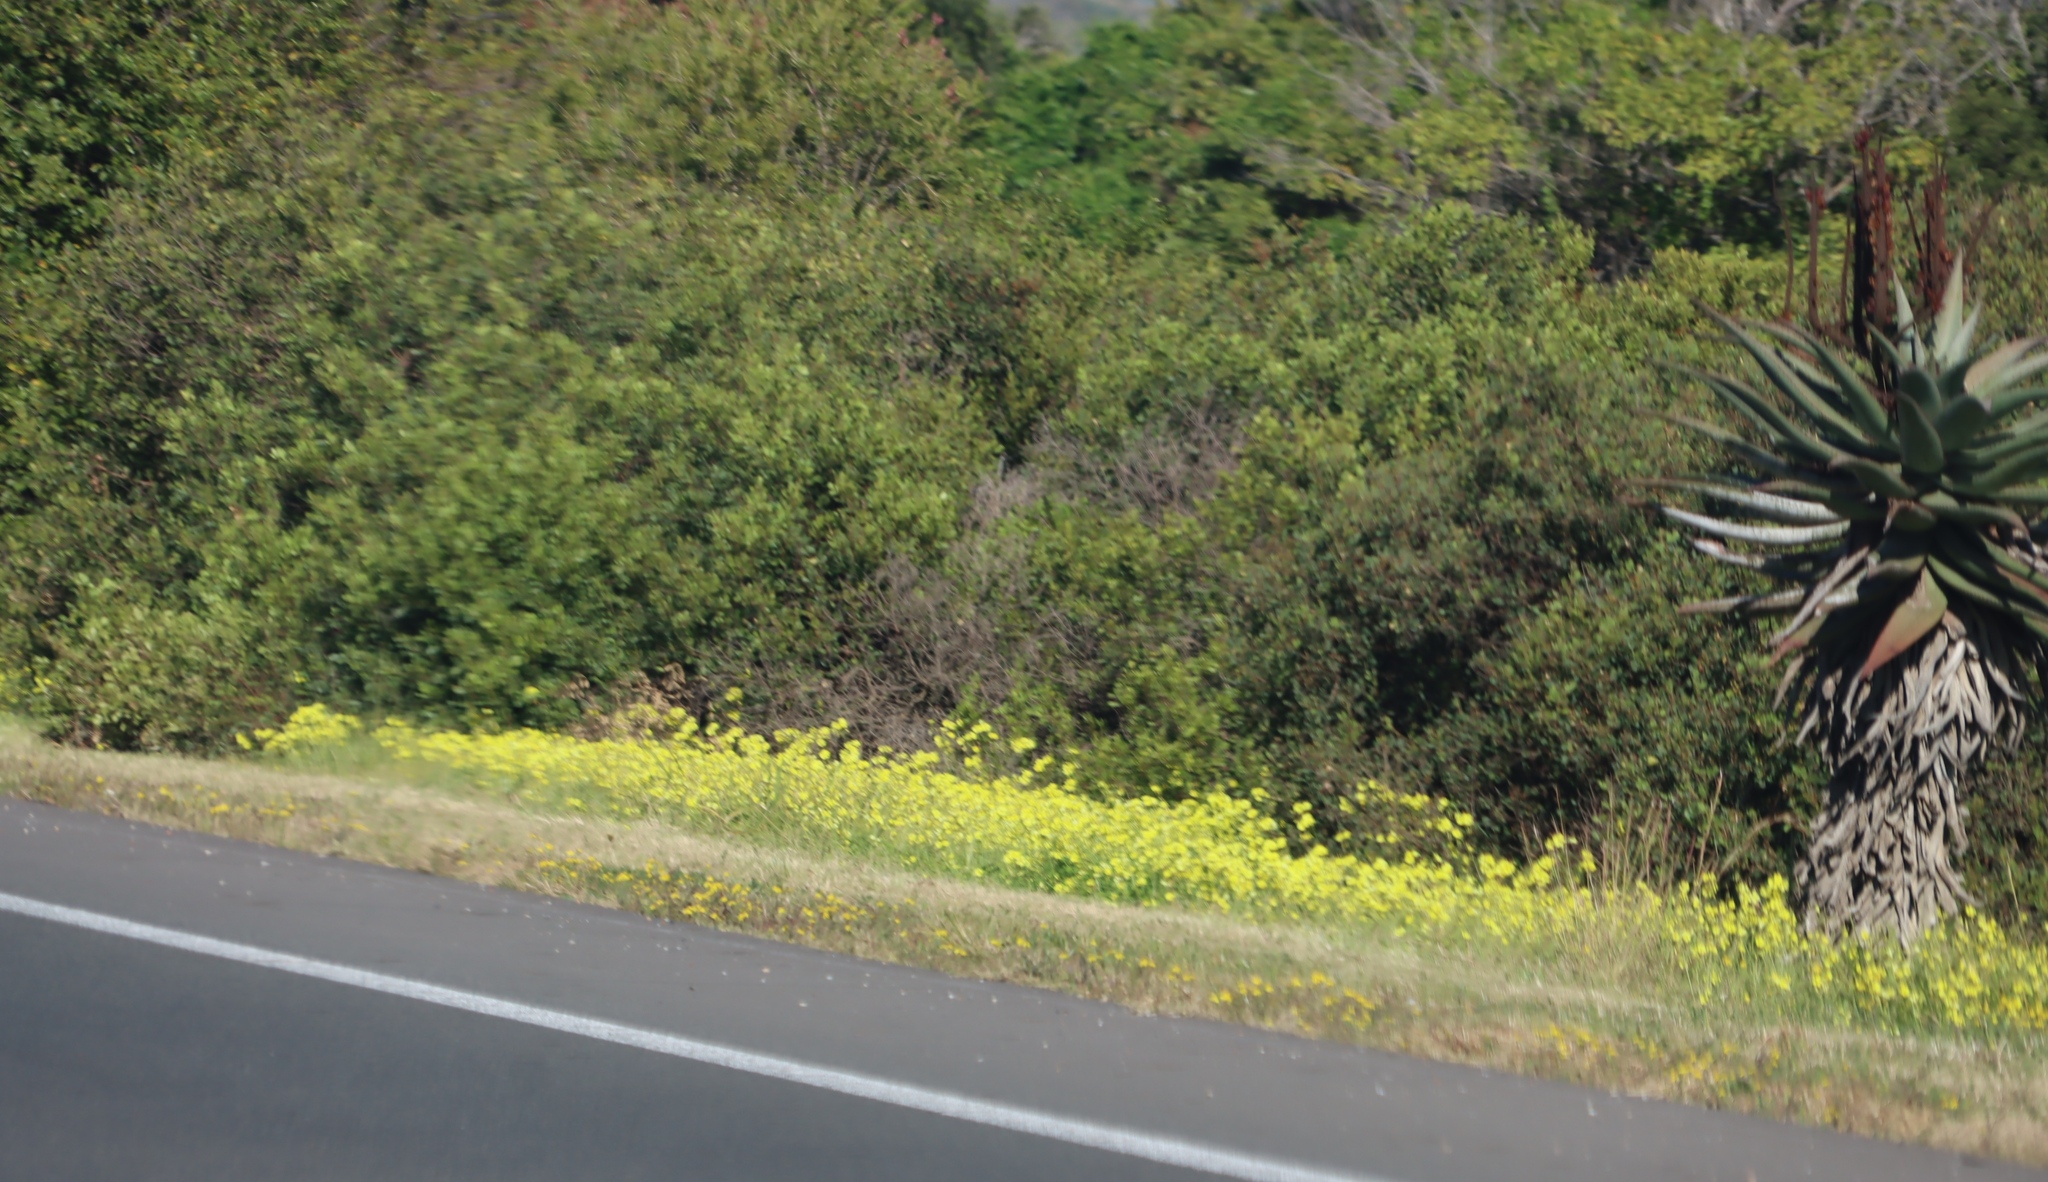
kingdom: Plantae
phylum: Tracheophyta
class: Magnoliopsida
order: Oxalidales
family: Oxalidaceae
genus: Oxalis
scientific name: Oxalis pes-caprae
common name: Bermuda-buttercup
